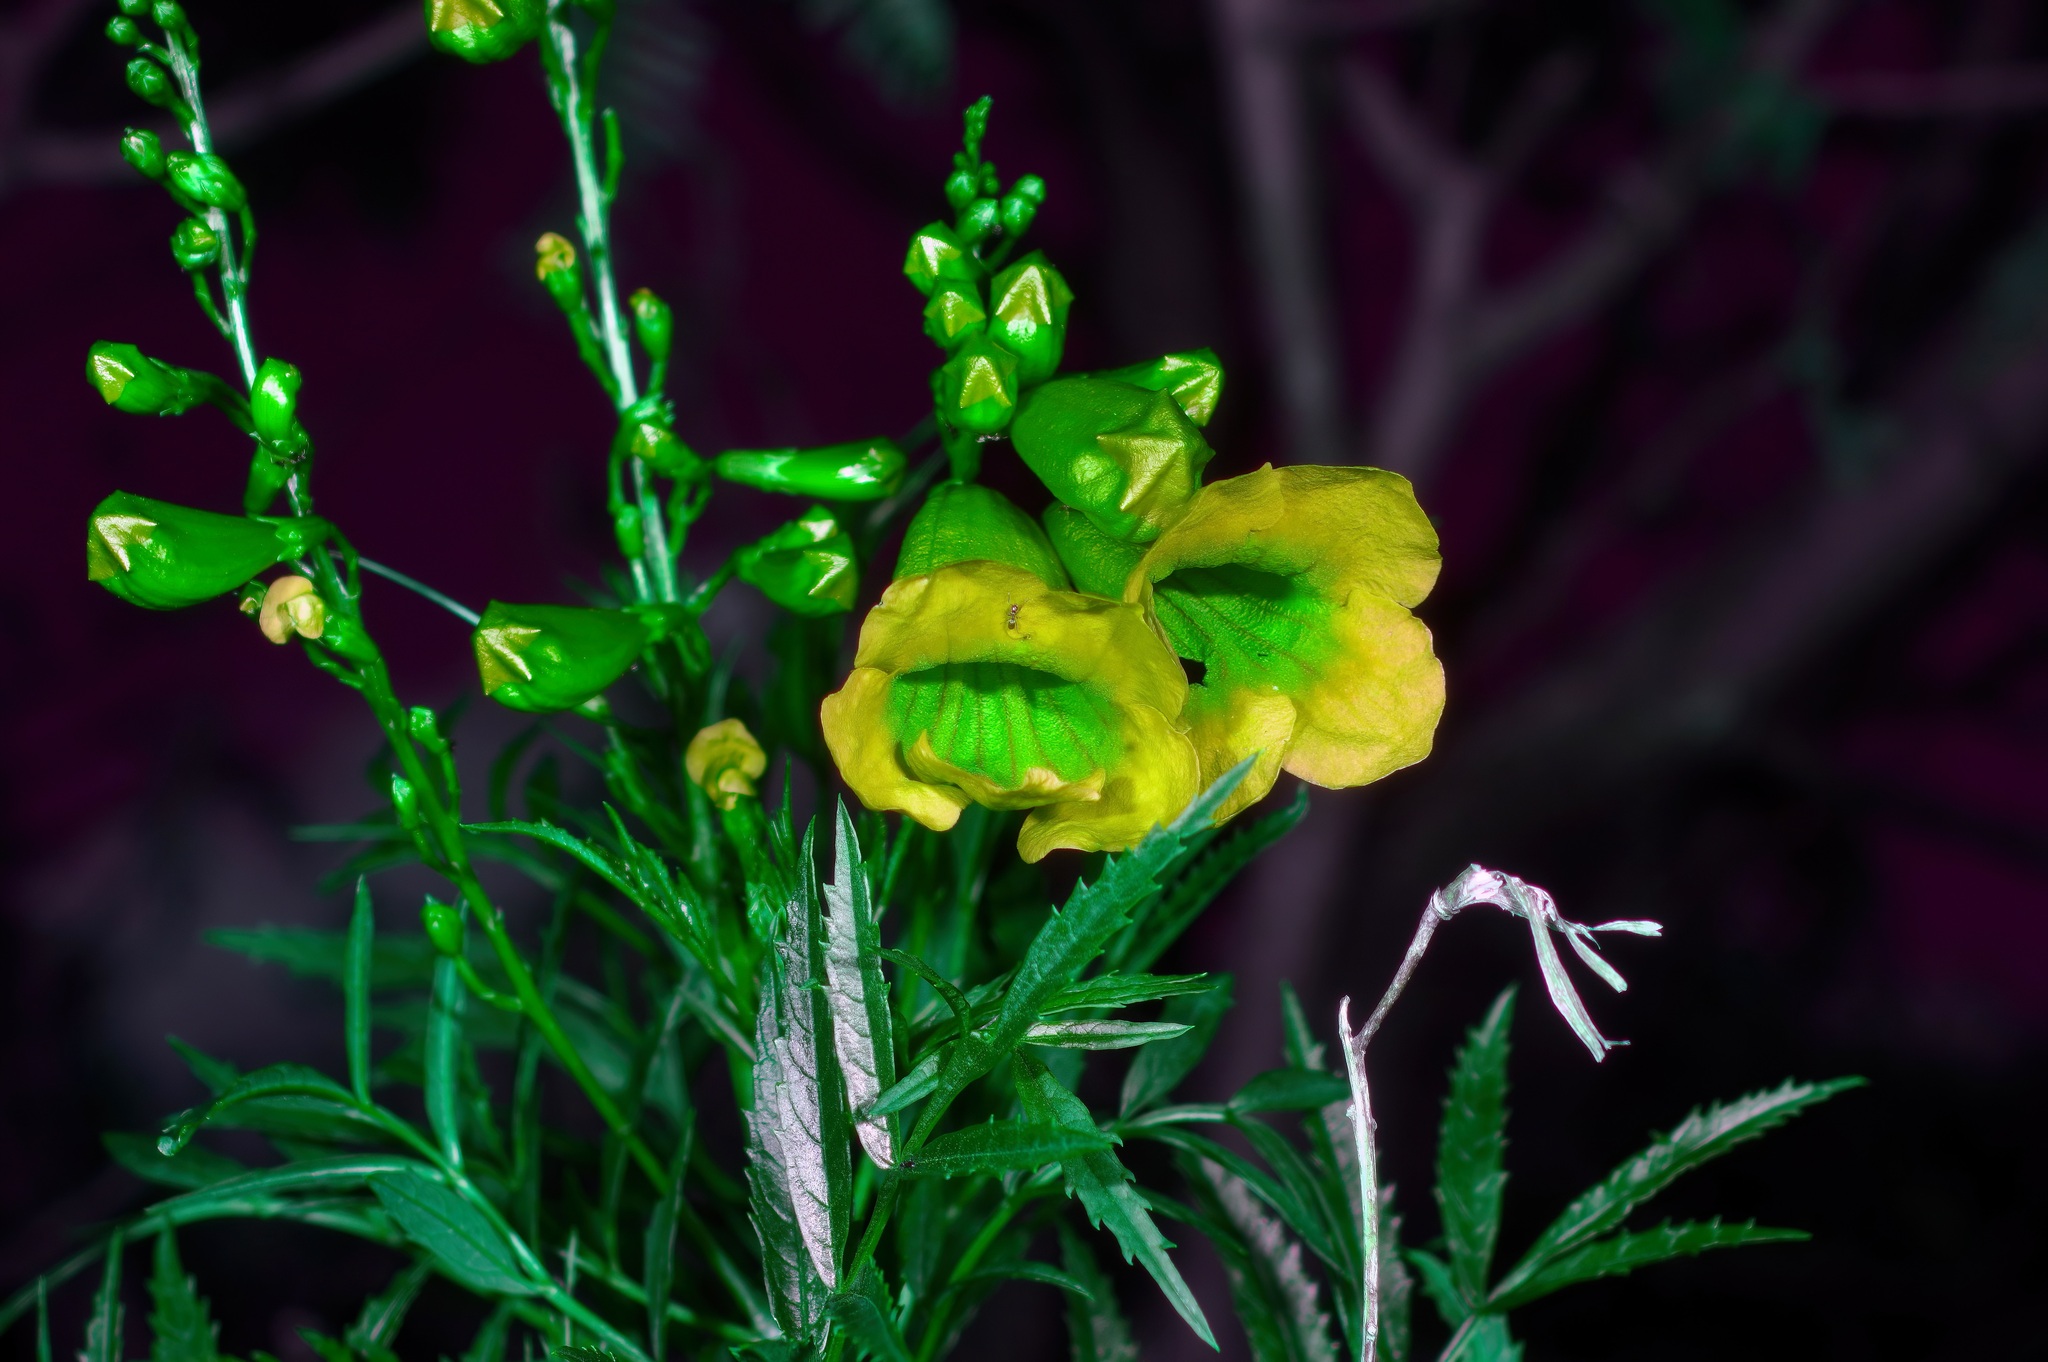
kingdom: Plantae
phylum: Tracheophyta
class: Magnoliopsida
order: Lamiales
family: Bignoniaceae
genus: Tecoma
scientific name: Tecoma stans
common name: Yellow trumpetbush
